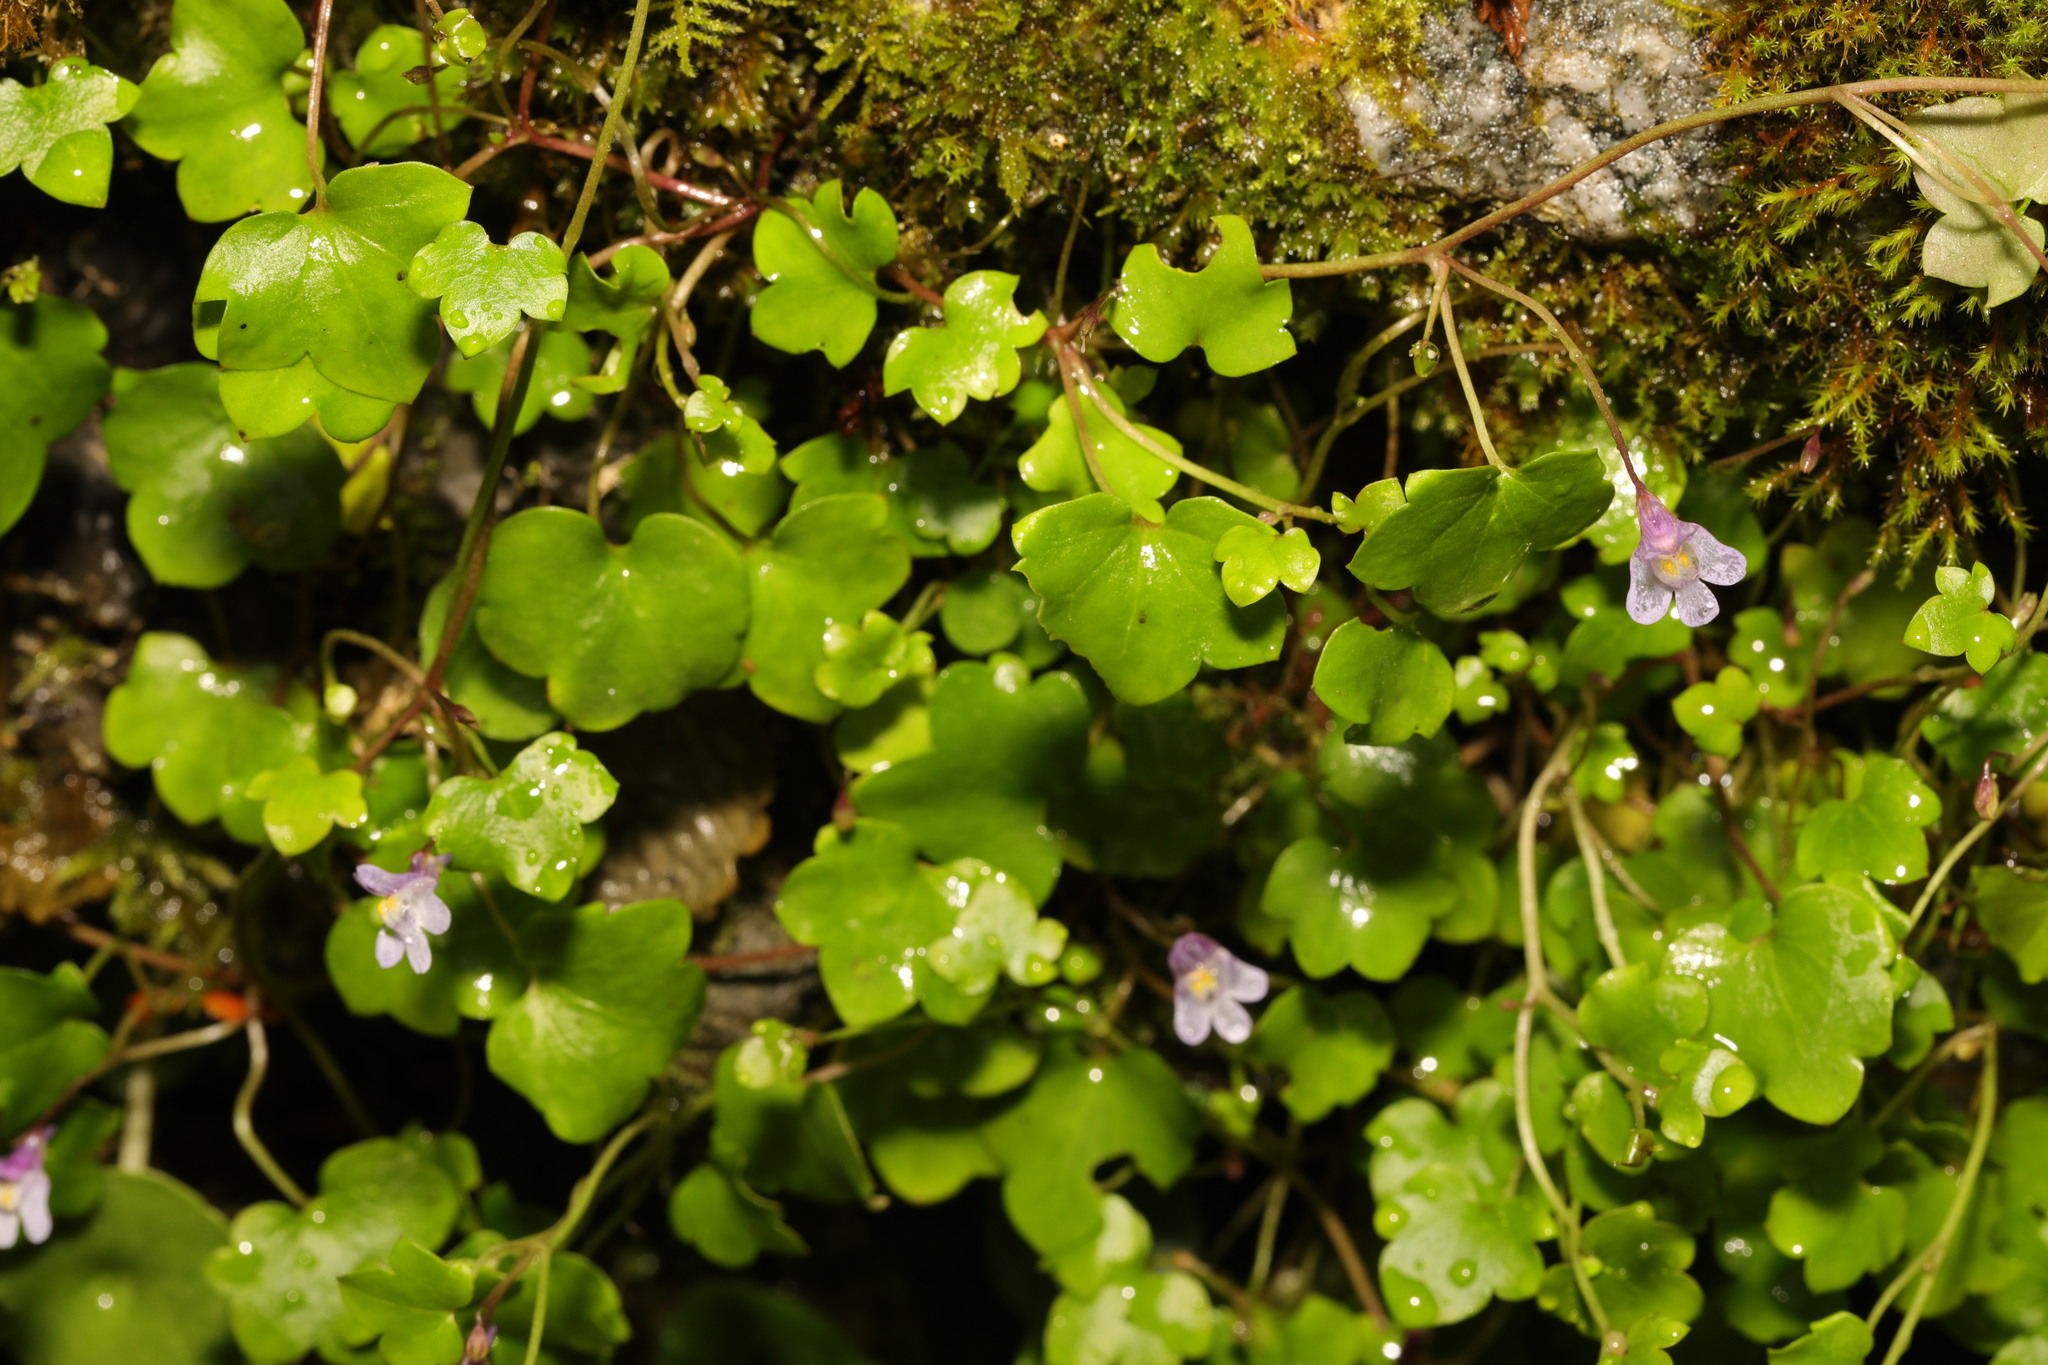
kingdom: Plantae
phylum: Tracheophyta
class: Magnoliopsida
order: Lamiales
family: Plantaginaceae
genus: Cymbalaria
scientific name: Cymbalaria muralis
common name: Ivy-leaved toadflax
